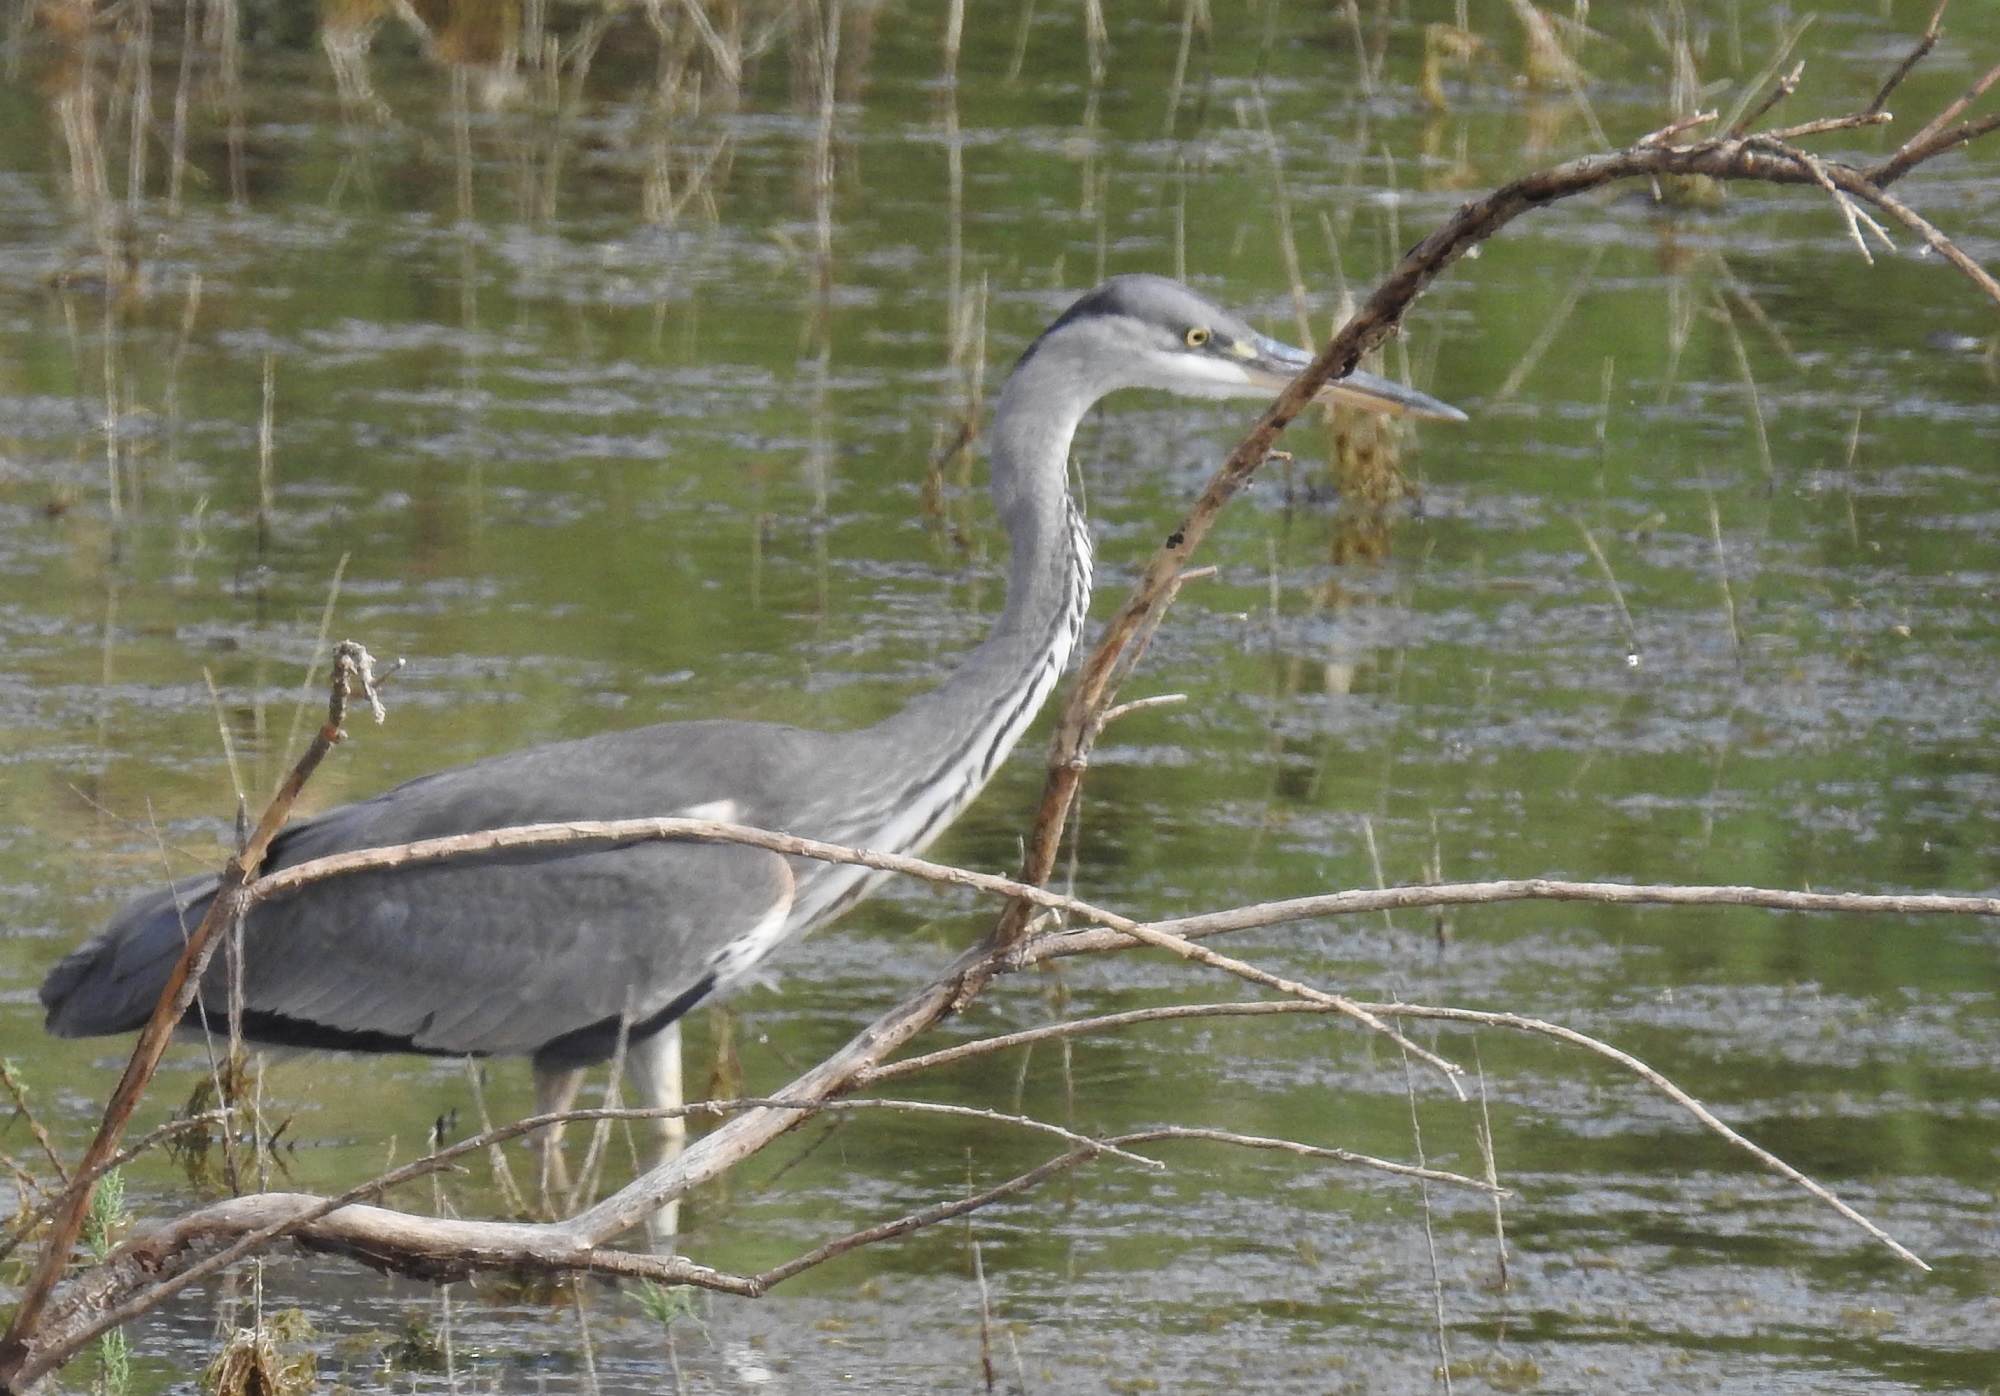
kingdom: Animalia
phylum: Chordata
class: Aves
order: Pelecaniformes
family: Ardeidae
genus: Ardea
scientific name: Ardea cinerea
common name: Grey heron
